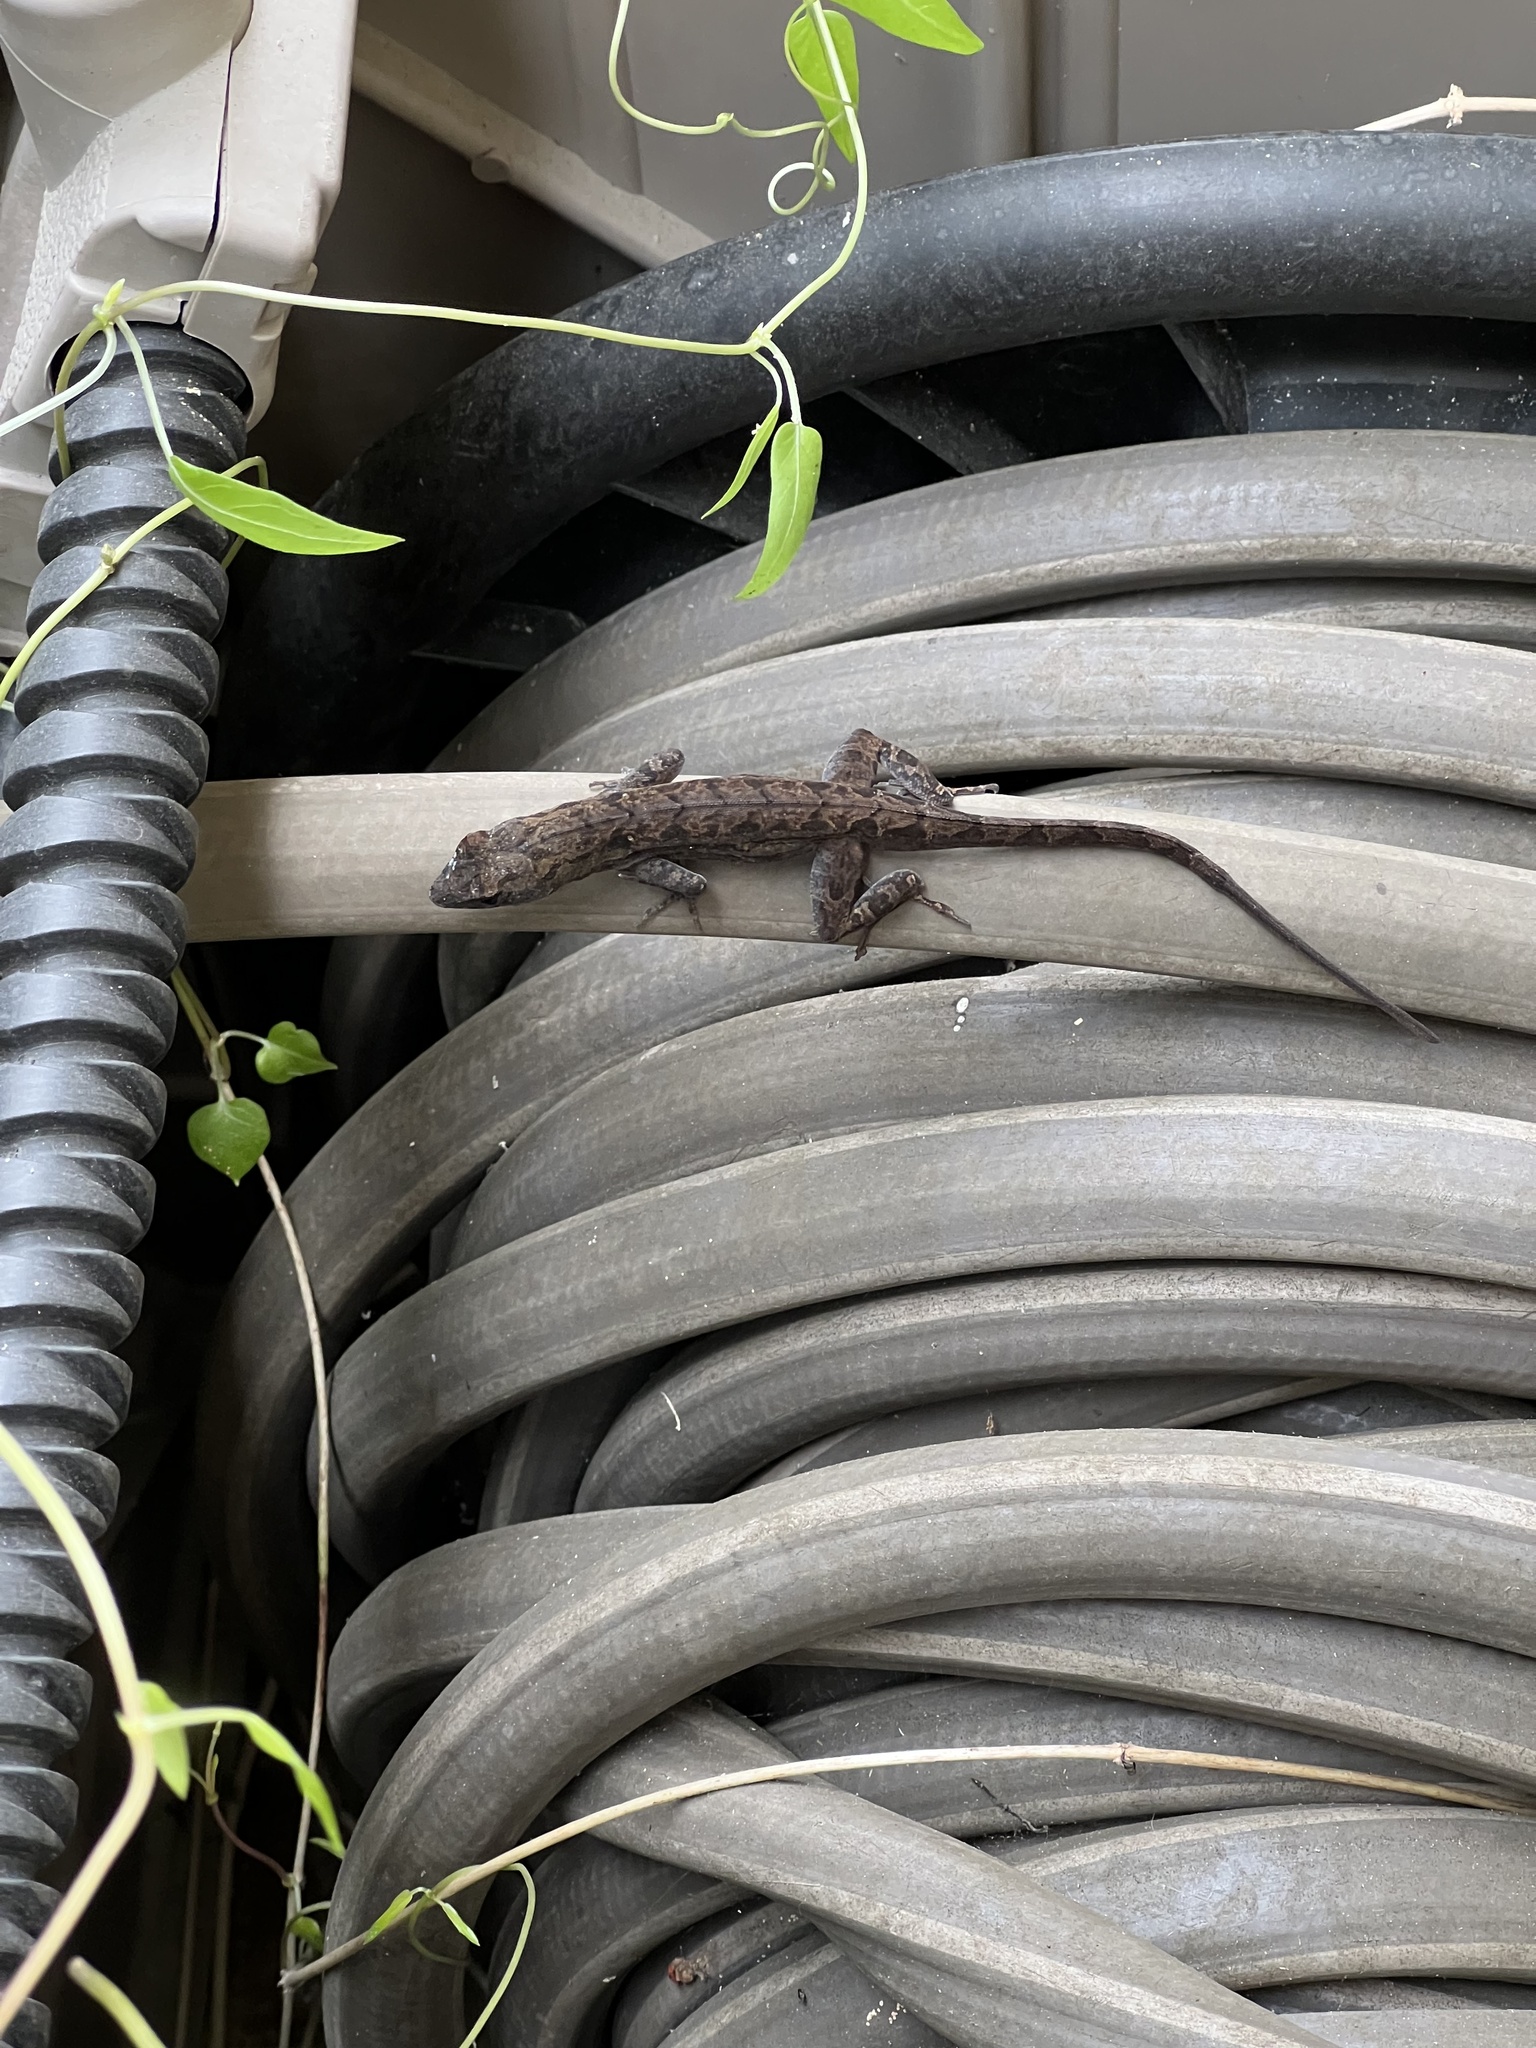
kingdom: Animalia
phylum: Chordata
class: Squamata
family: Dactyloidae
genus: Anolis
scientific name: Anolis sagrei
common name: Brown anole
